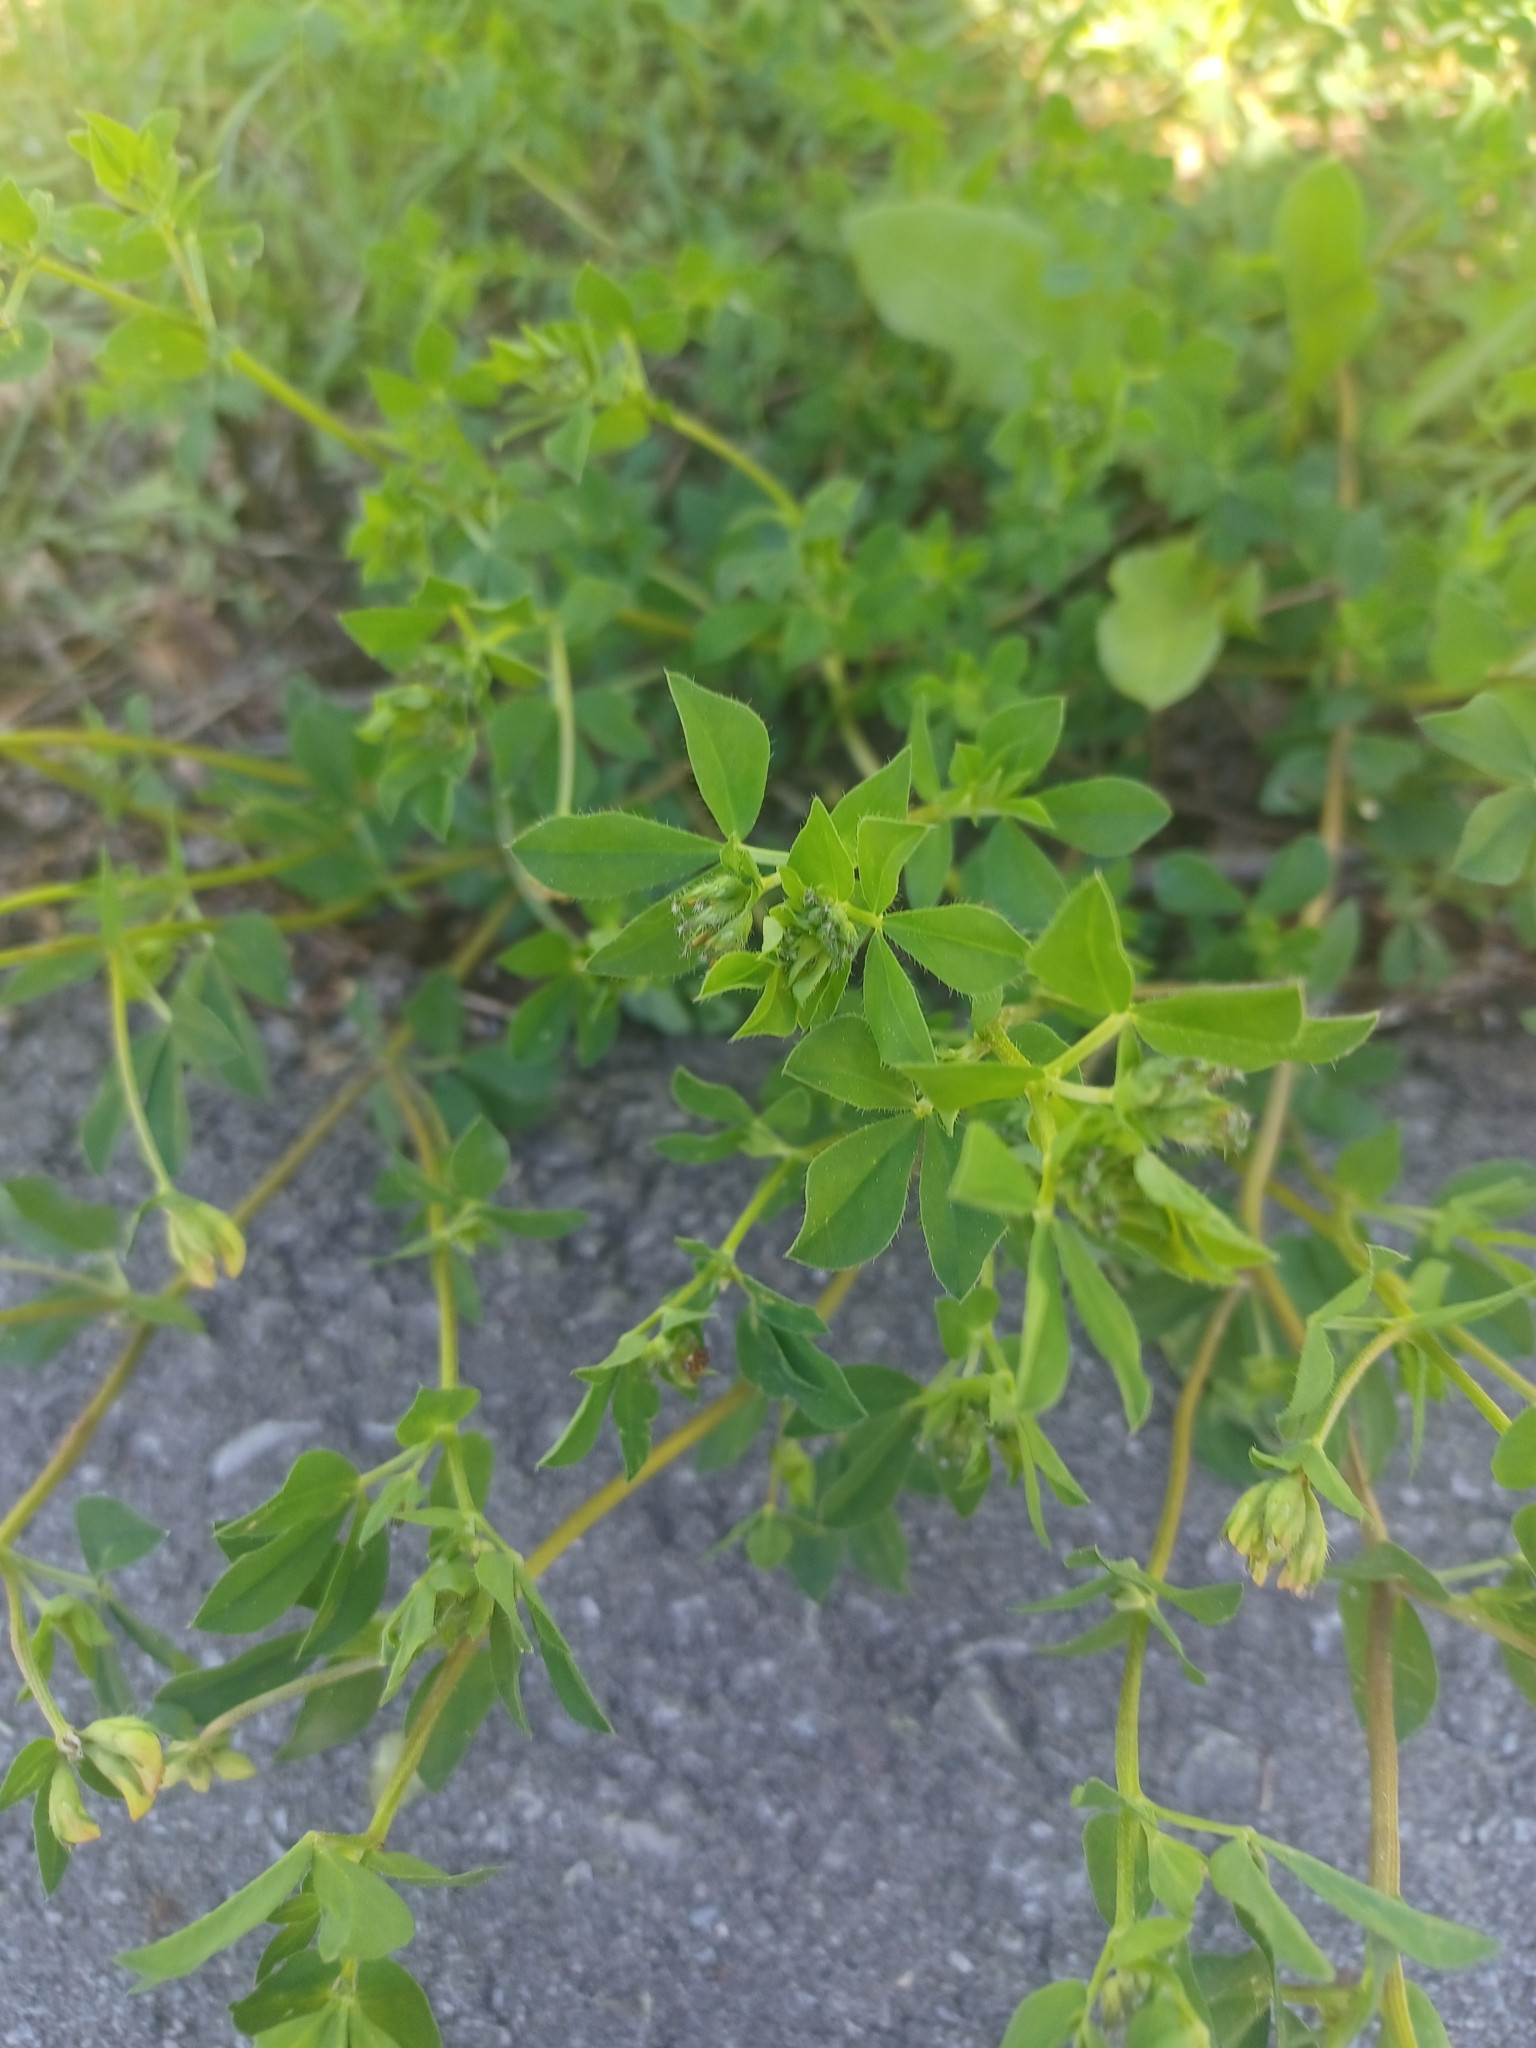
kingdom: Plantae
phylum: Tracheophyta
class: Magnoliopsida
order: Fabales
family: Fabaceae
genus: Lotus
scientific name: Lotus corniculatus
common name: Common bird's-foot-trefoil
